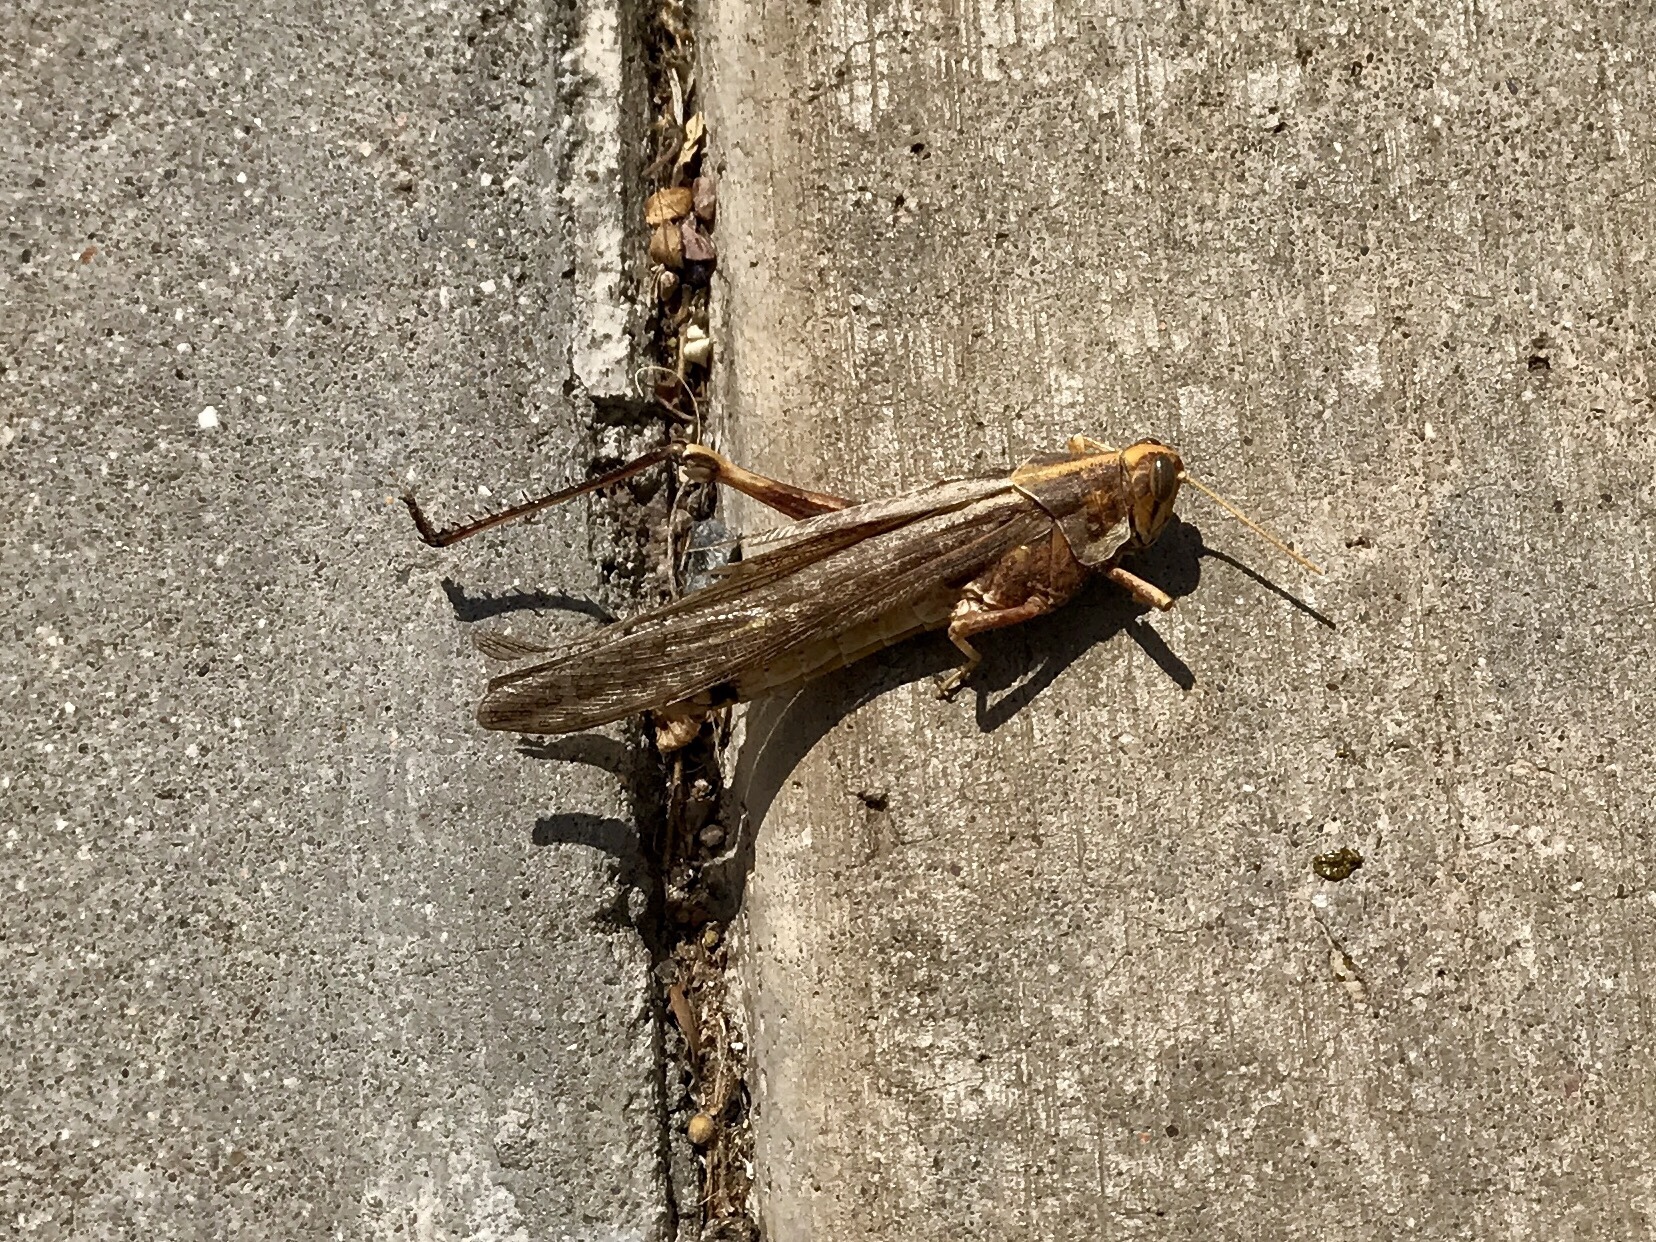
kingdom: Animalia
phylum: Arthropoda
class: Insecta
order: Orthoptera
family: Acrididae
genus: Schistocerca
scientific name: Schistocerca nitens
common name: Vagrant grasshopper
